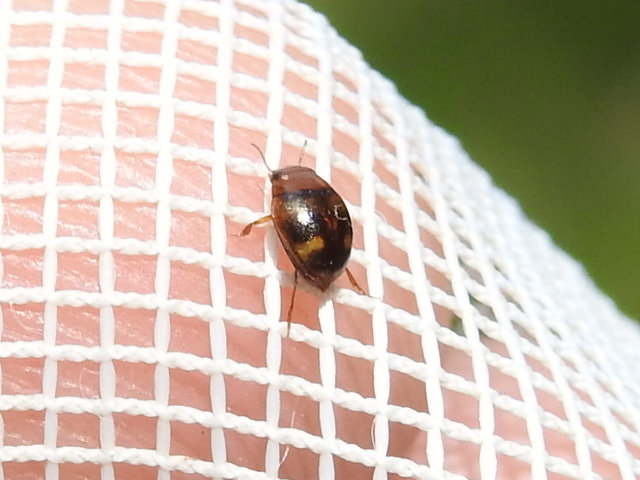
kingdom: Animalia
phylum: Arthropoda
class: Insecta
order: Coleoptera
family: Dytiscidae
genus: Hydrovatus
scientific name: Hydrovatus
